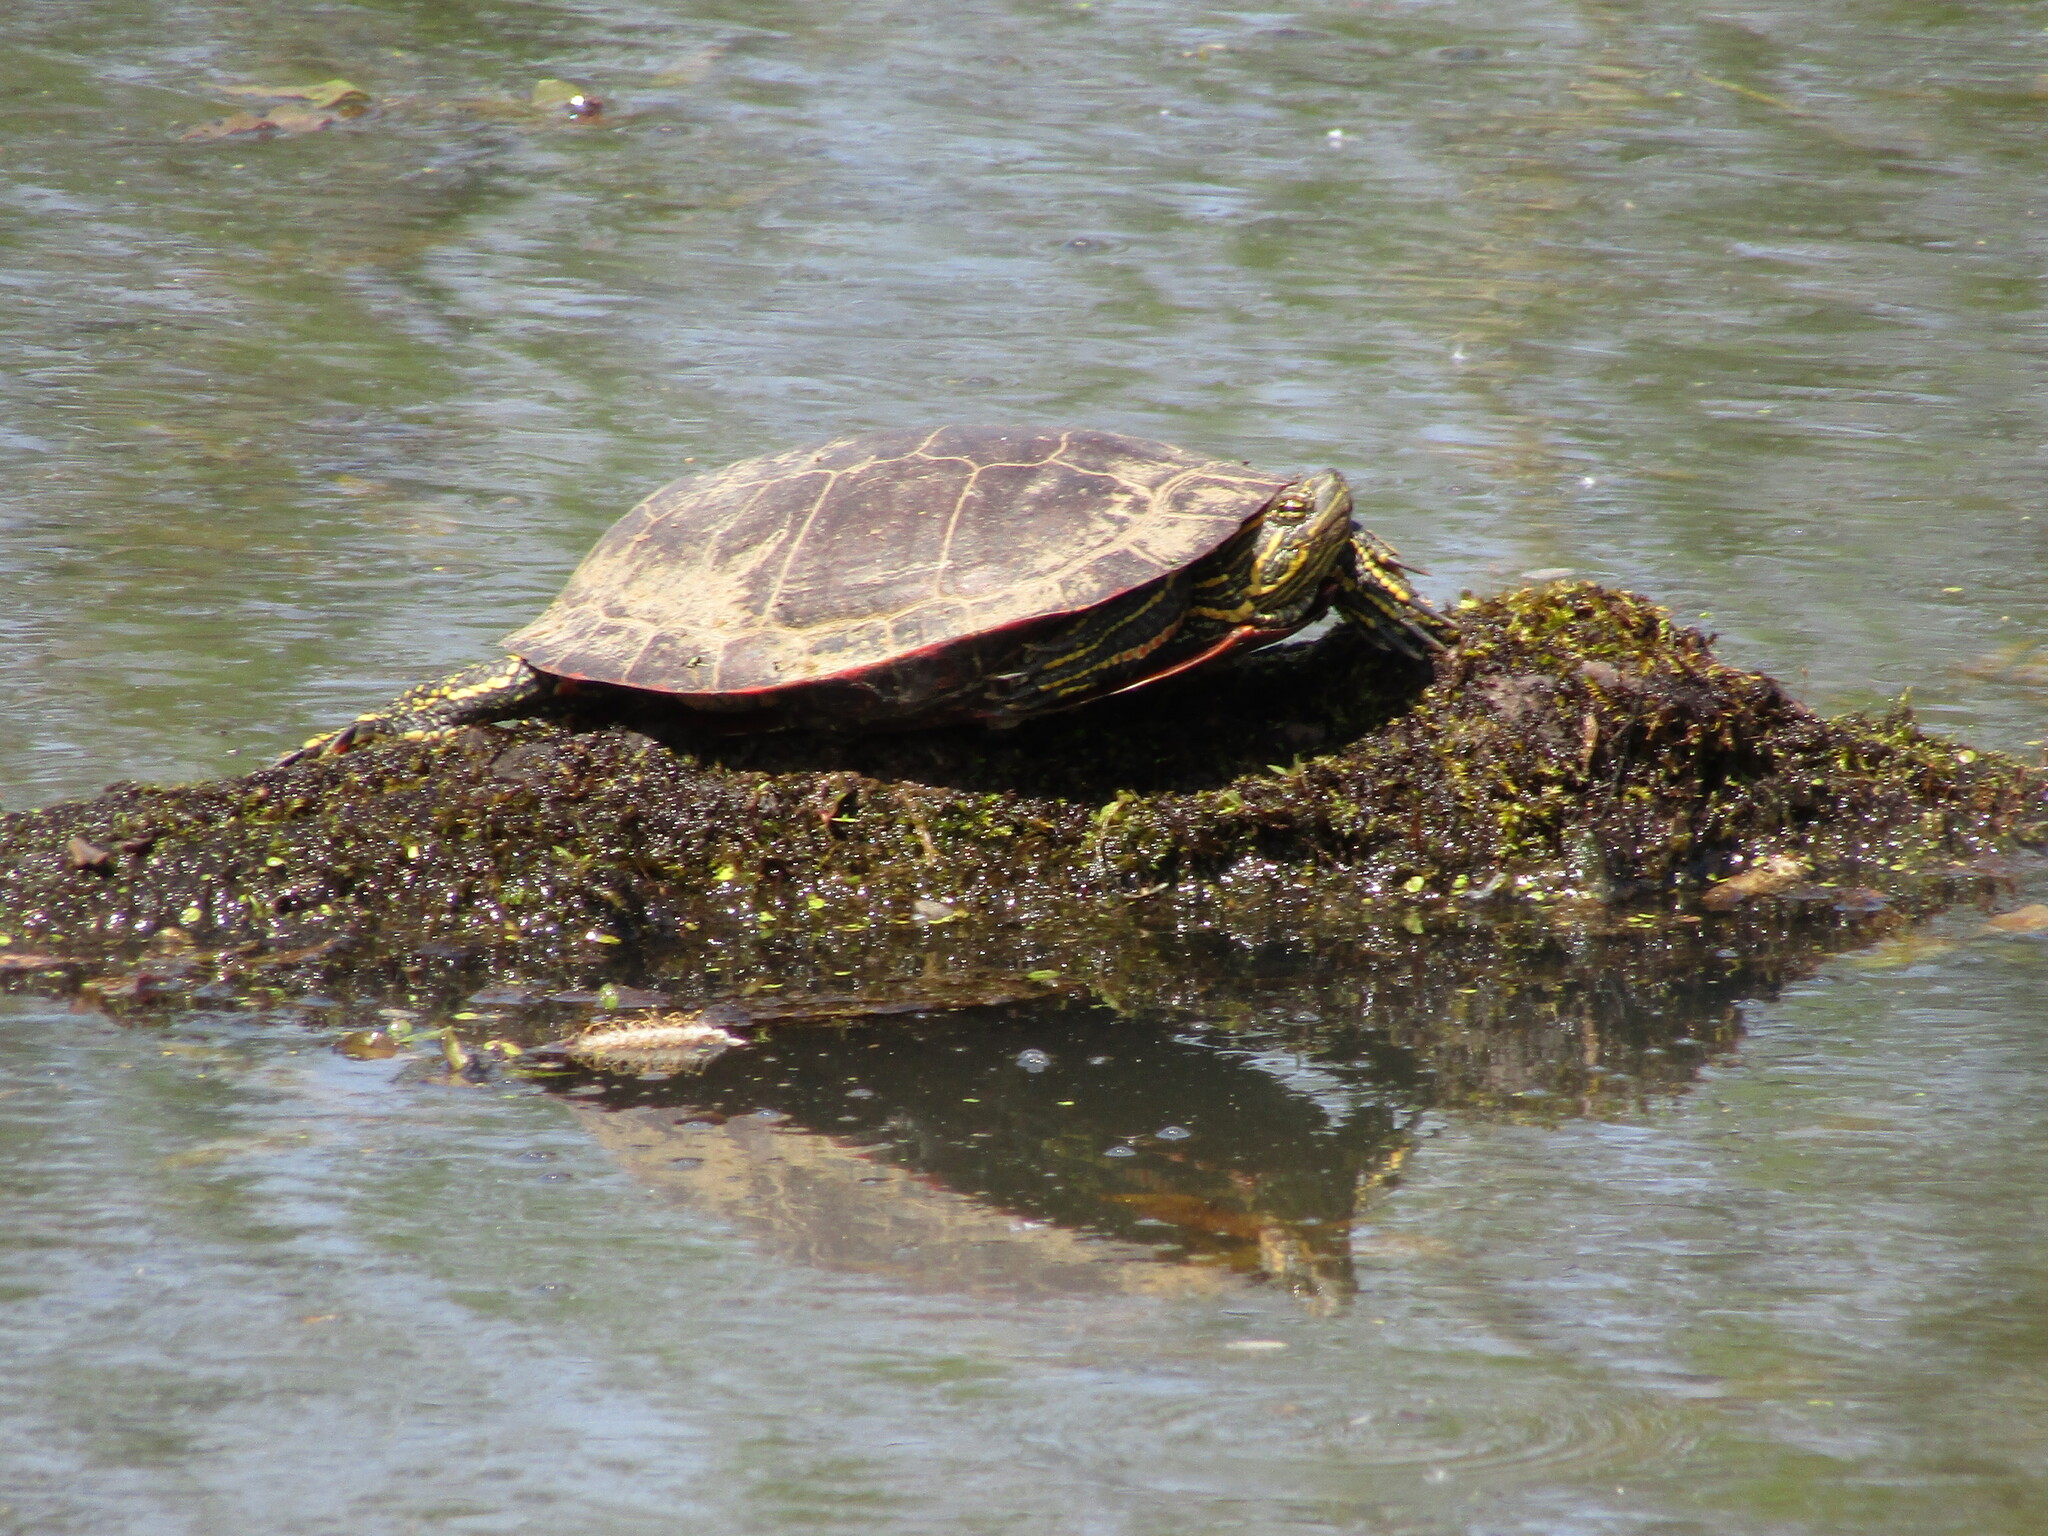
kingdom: Animalia
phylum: Chordata
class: Testudines
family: Emydidae
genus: Chrysemys
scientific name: Chrysemys picta
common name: Painted turtle
